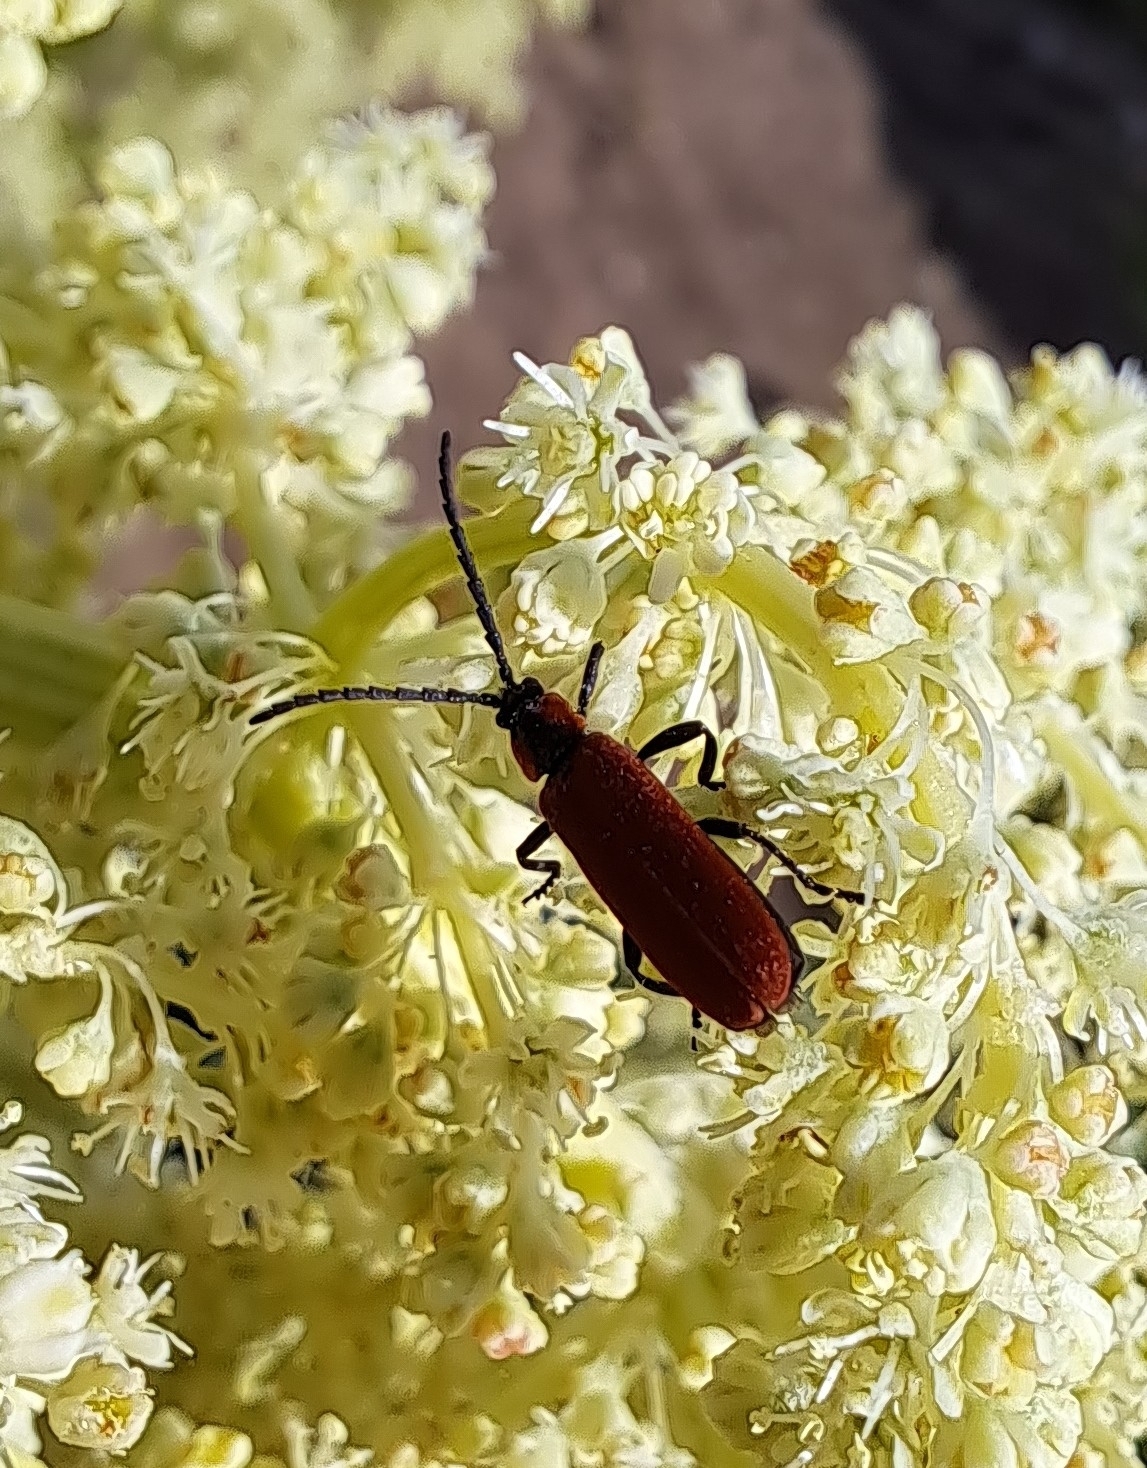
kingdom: Animalia
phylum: Arthropoda
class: Insecta
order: Coleoptera
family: Lycidae
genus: Lygistopterus
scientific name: Lygistopterus sanguineus
